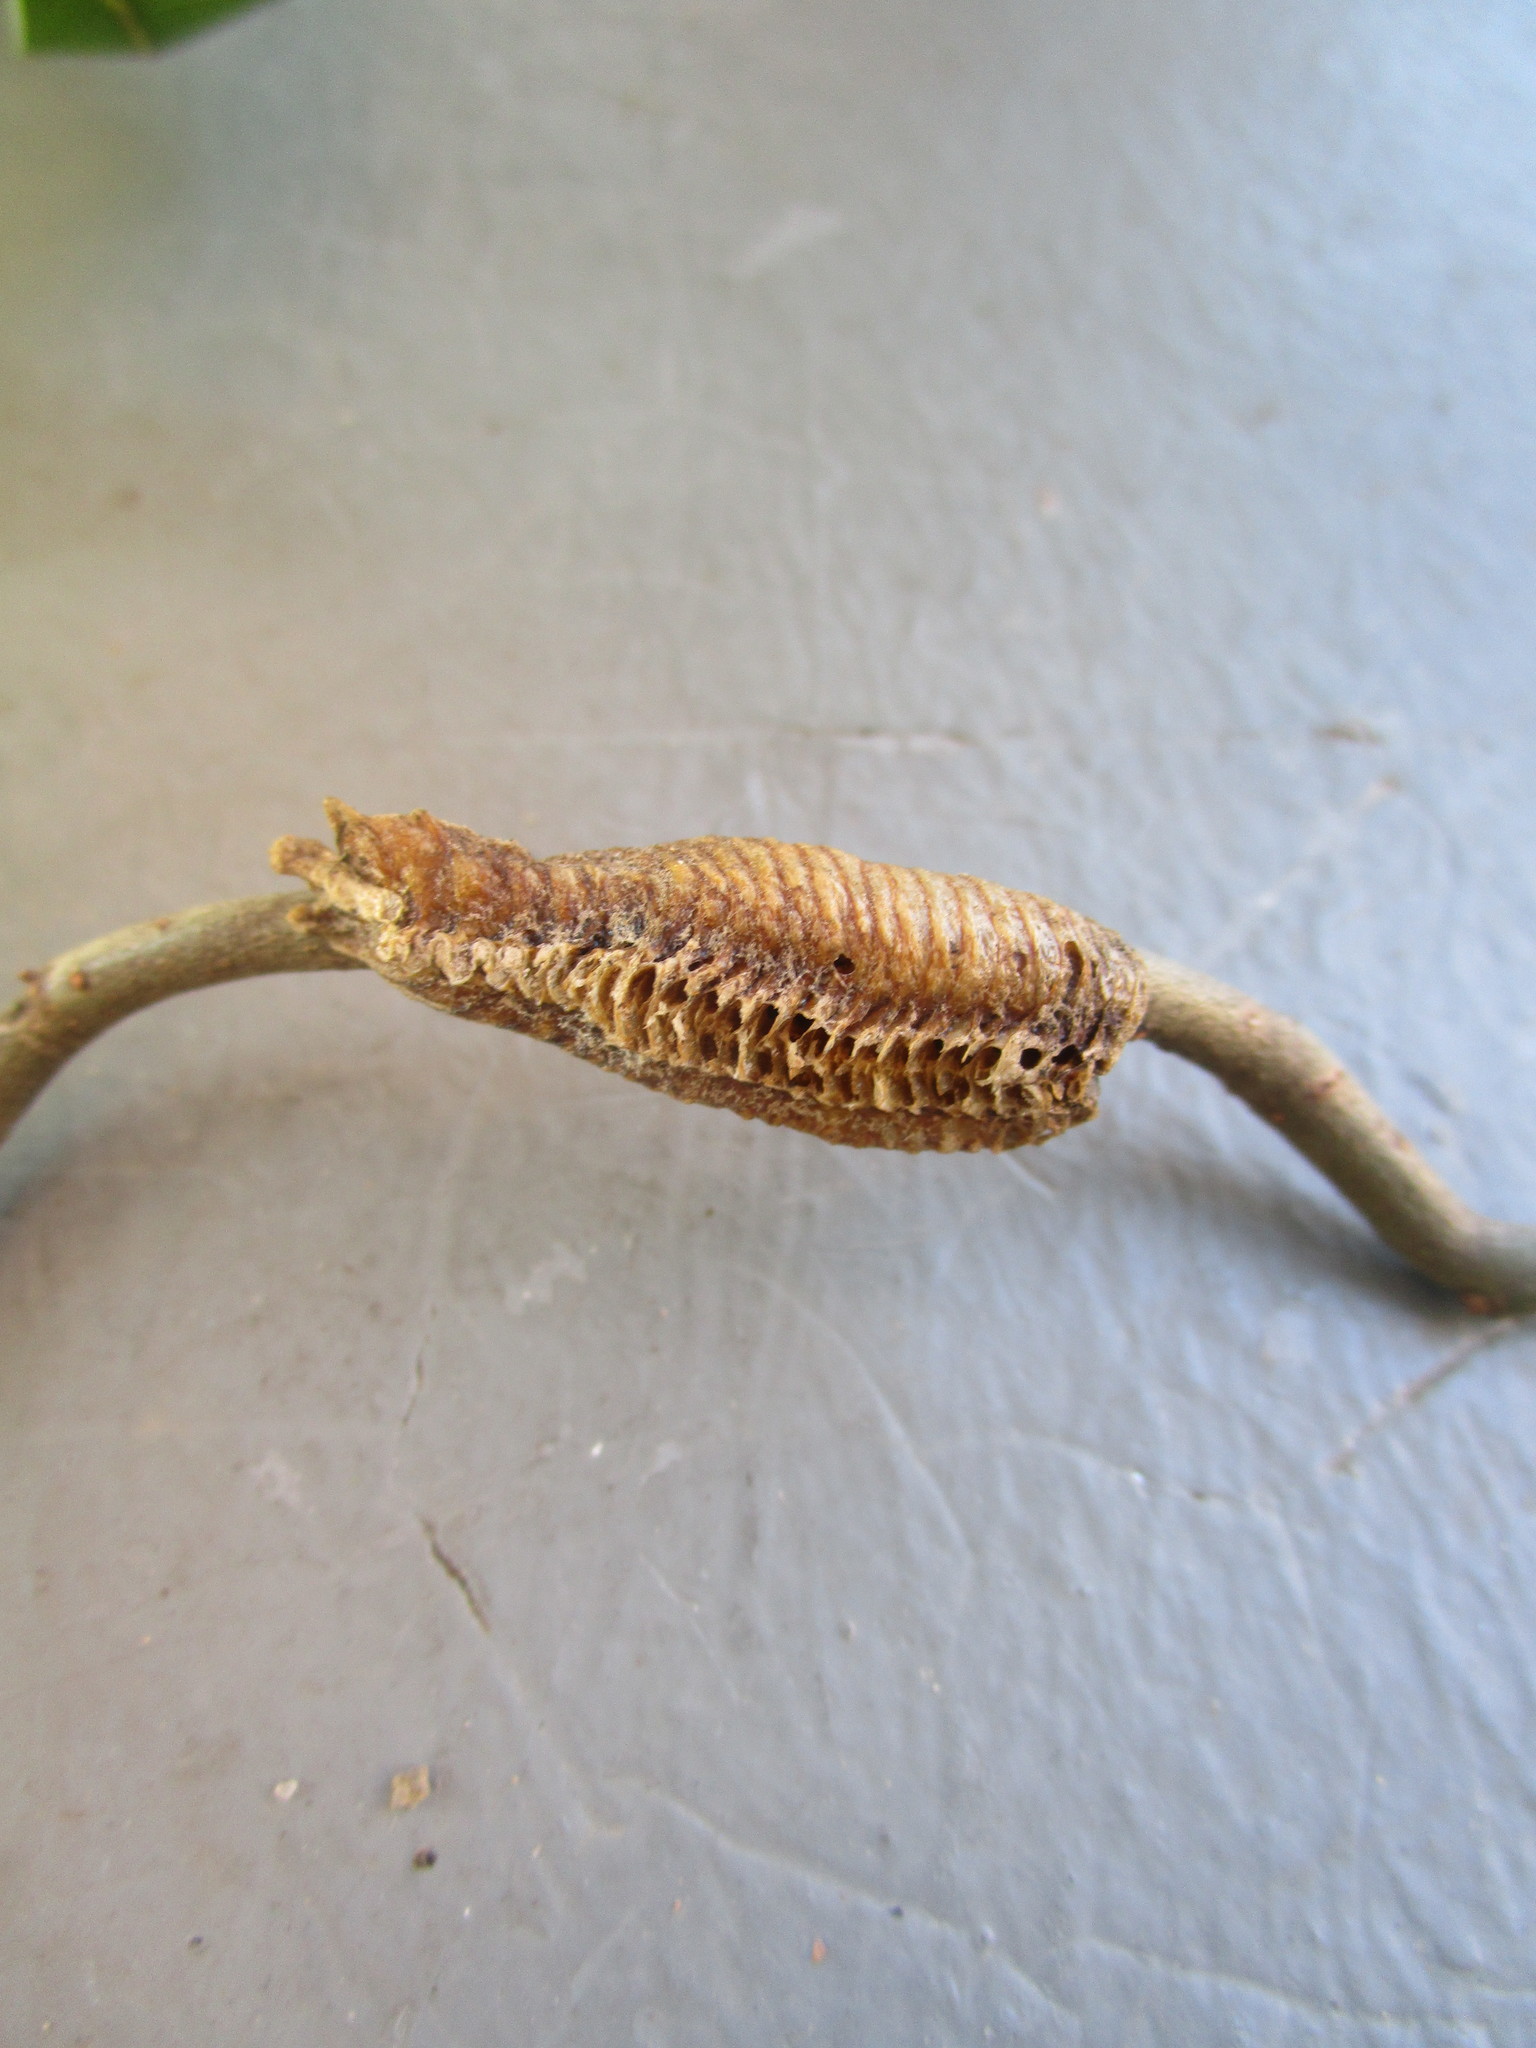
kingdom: Animalia
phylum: Arthropoda
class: Insecta
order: Mantodea
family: Mantidae
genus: Stagmomantis
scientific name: Stagmomantis carolina
